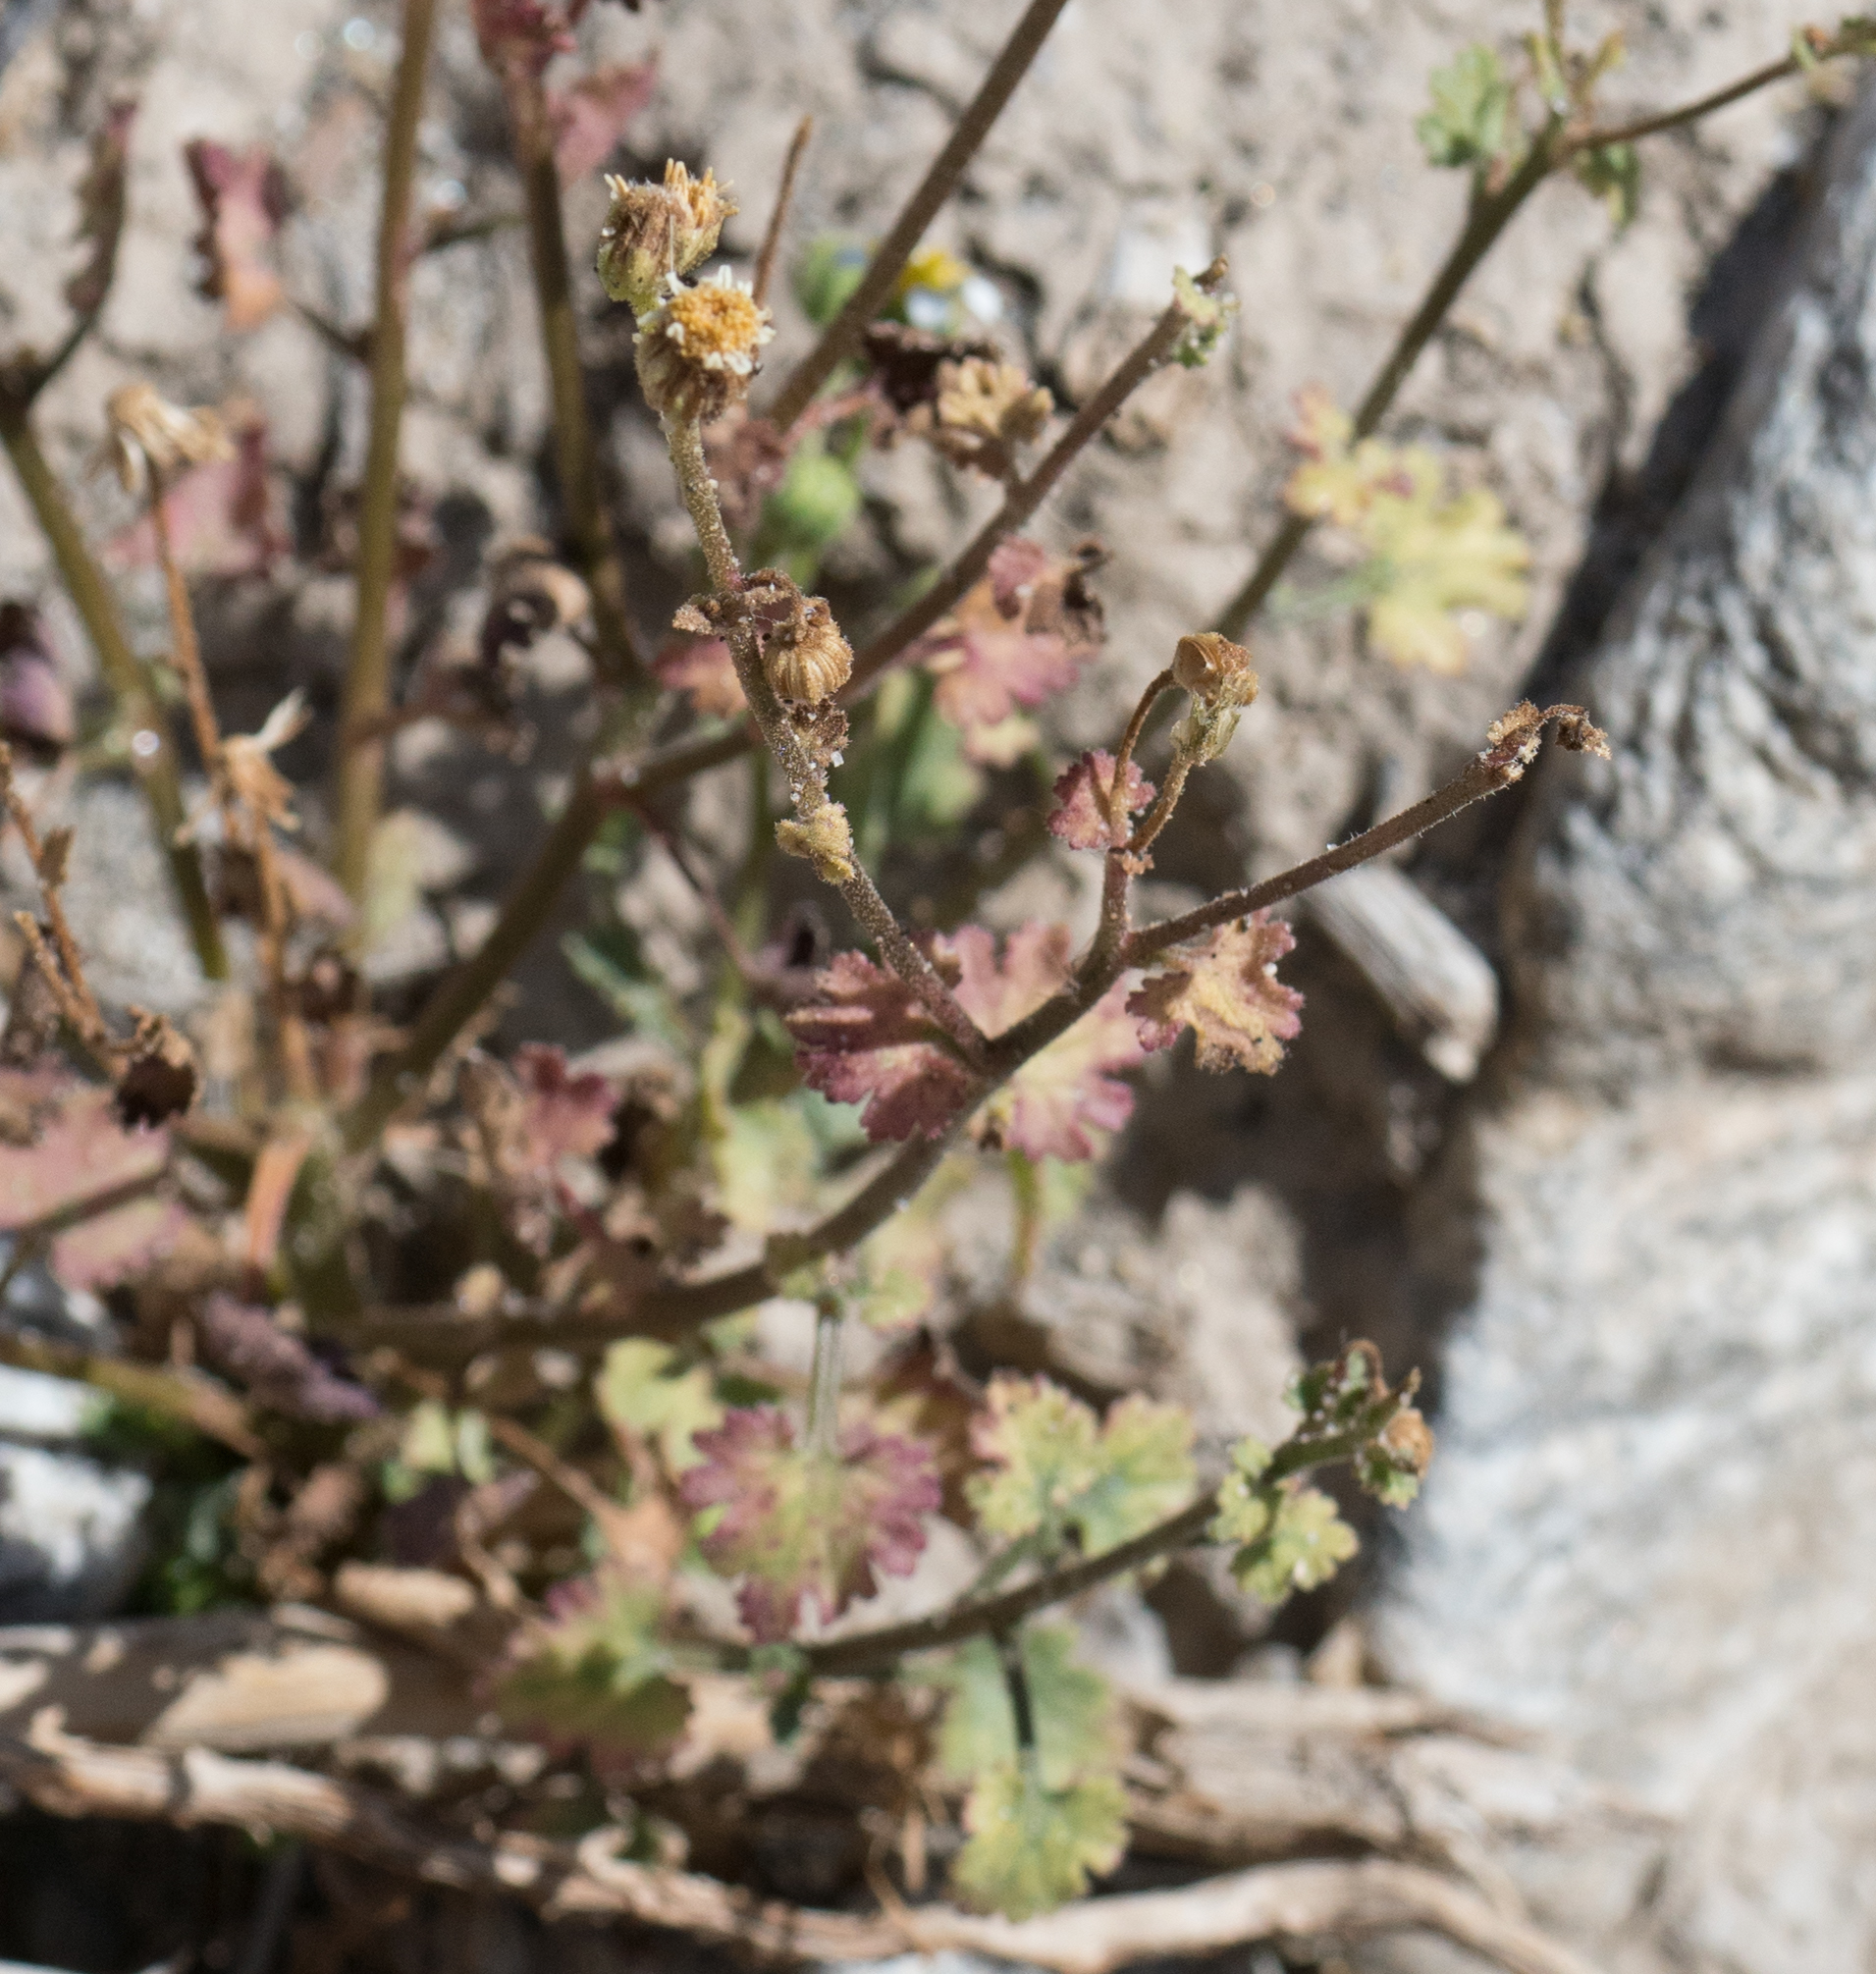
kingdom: Plantae
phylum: Tracheophyta
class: Magnoliopsida
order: Asterales
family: Asteraceae
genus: Laphamia
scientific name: Laphamia emoryi
